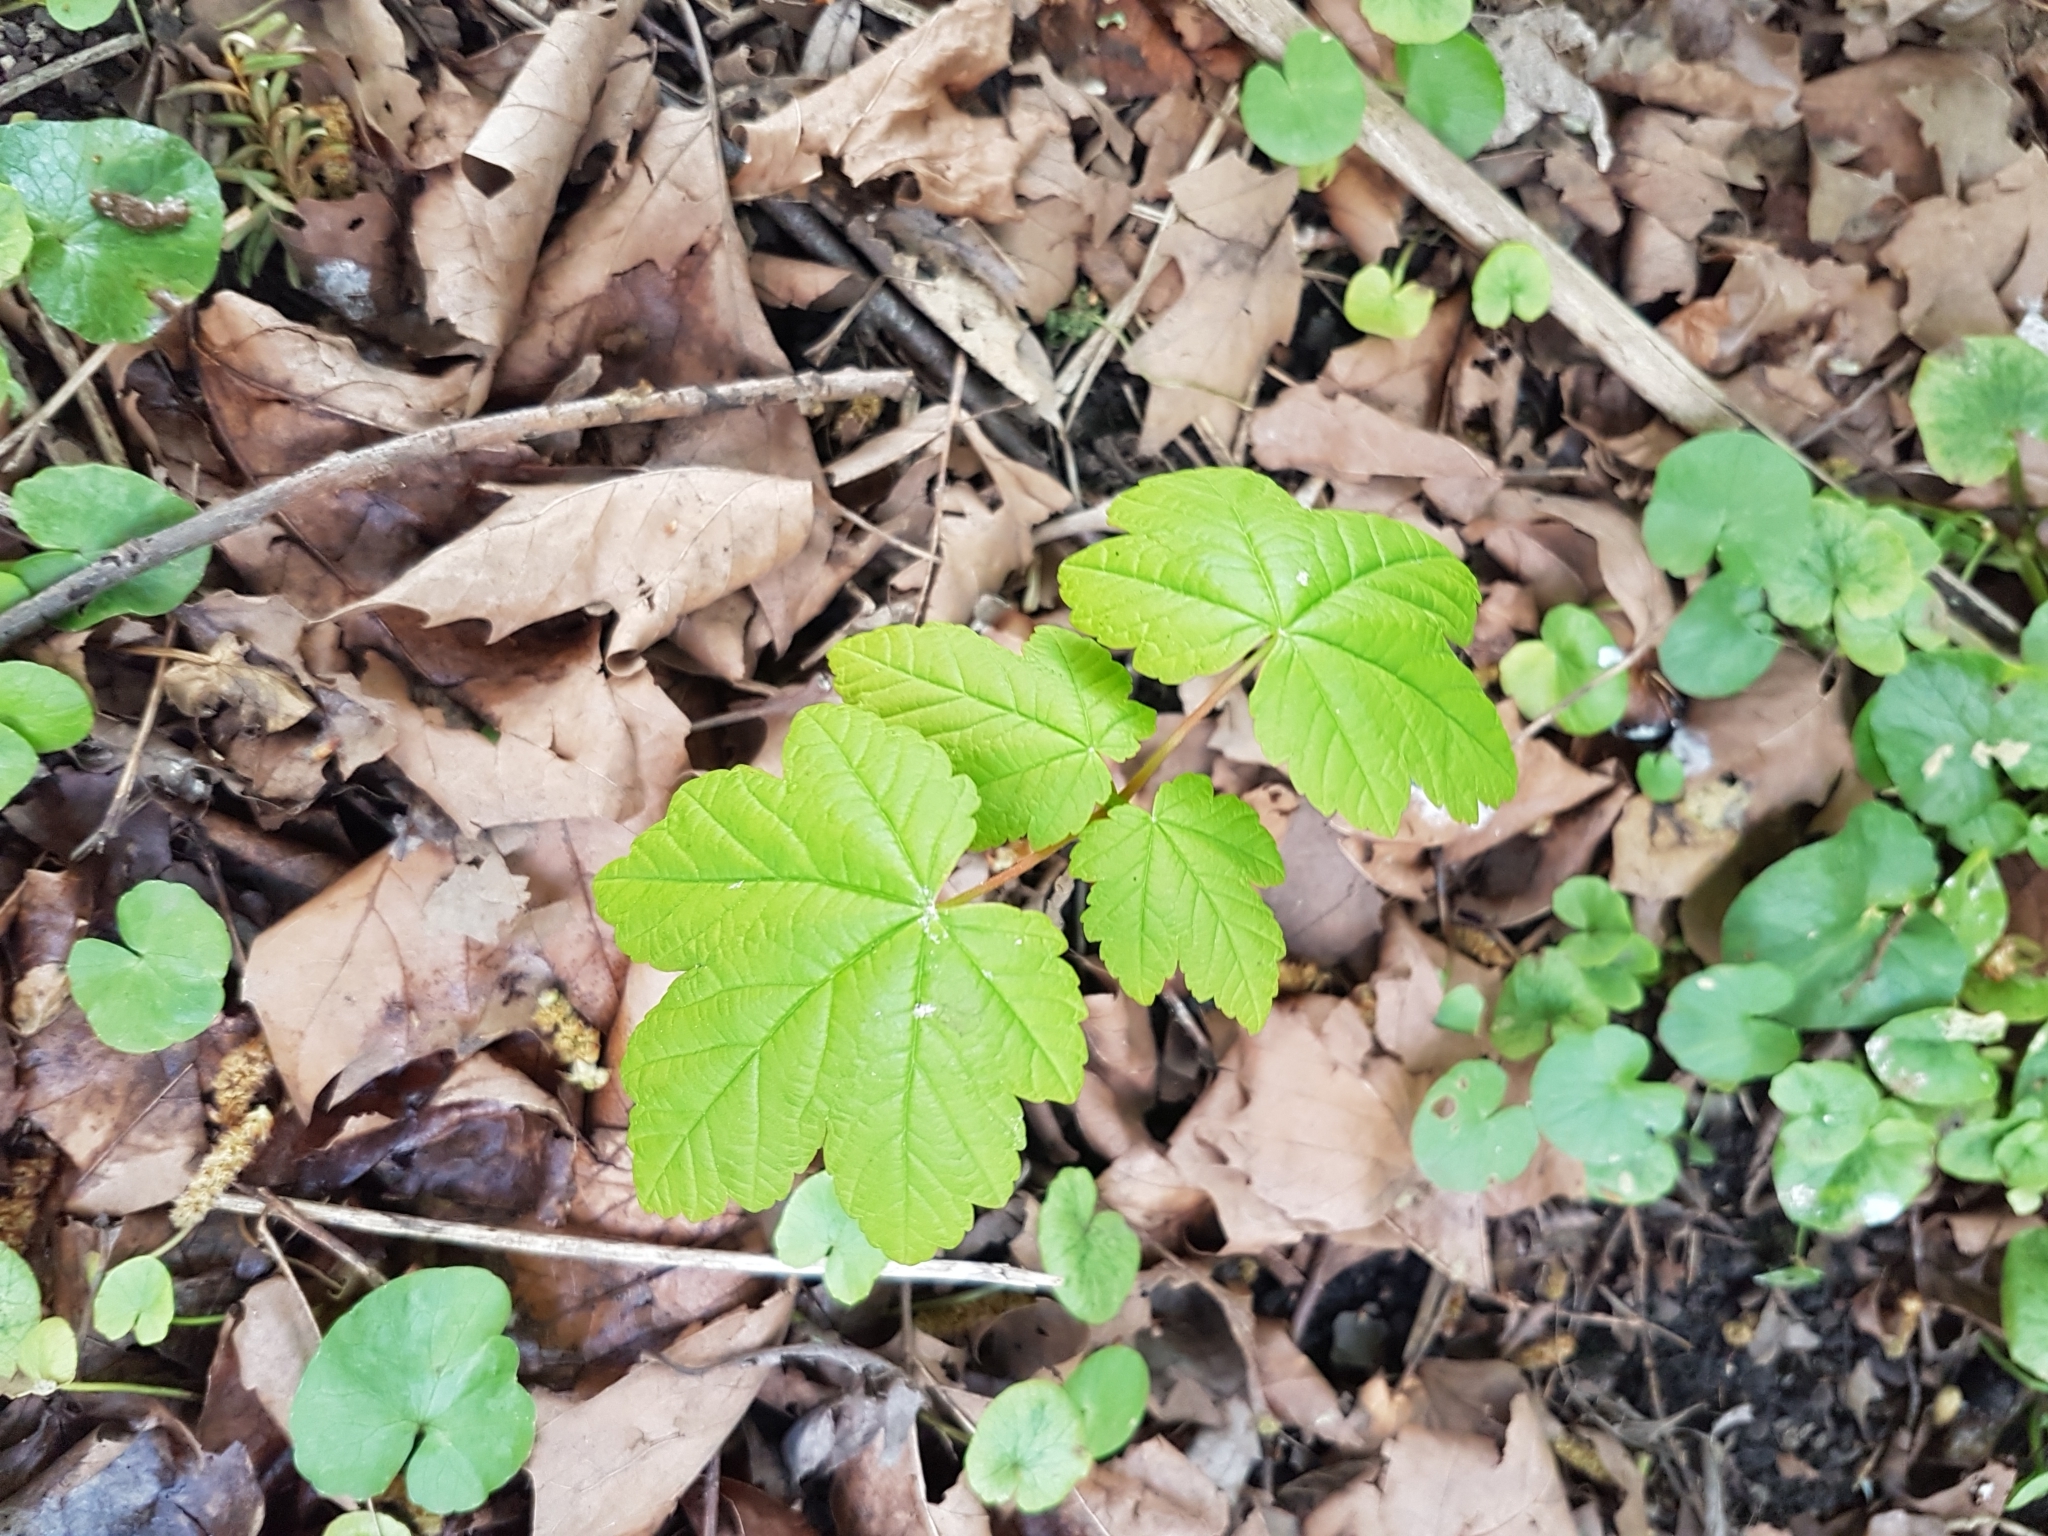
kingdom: Plantae
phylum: Tracheophyta
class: Magnoliopsida
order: Sapindales
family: Sapindaceae
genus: Acer
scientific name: Acer pseudoplatanus
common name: Sycamore
